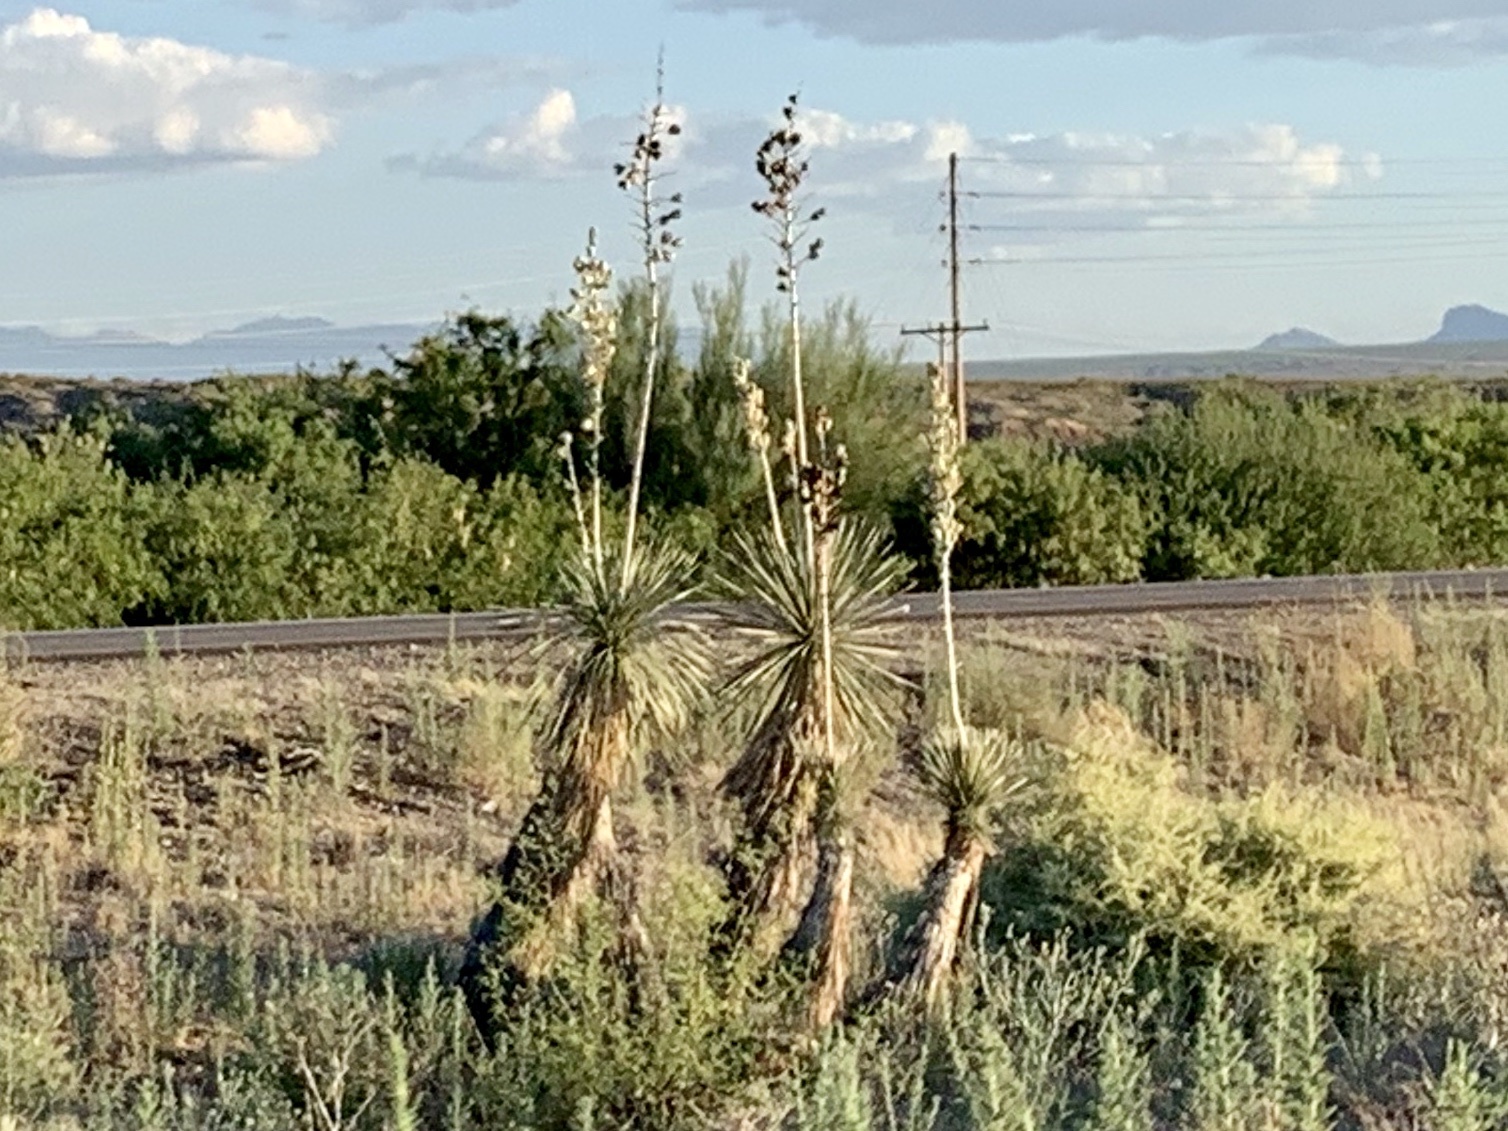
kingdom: Plantae
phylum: Tracheophyta
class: Liliopsida
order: Asparagales
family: Asparagaceae
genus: Yucca
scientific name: Yucca elata
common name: Palmella
